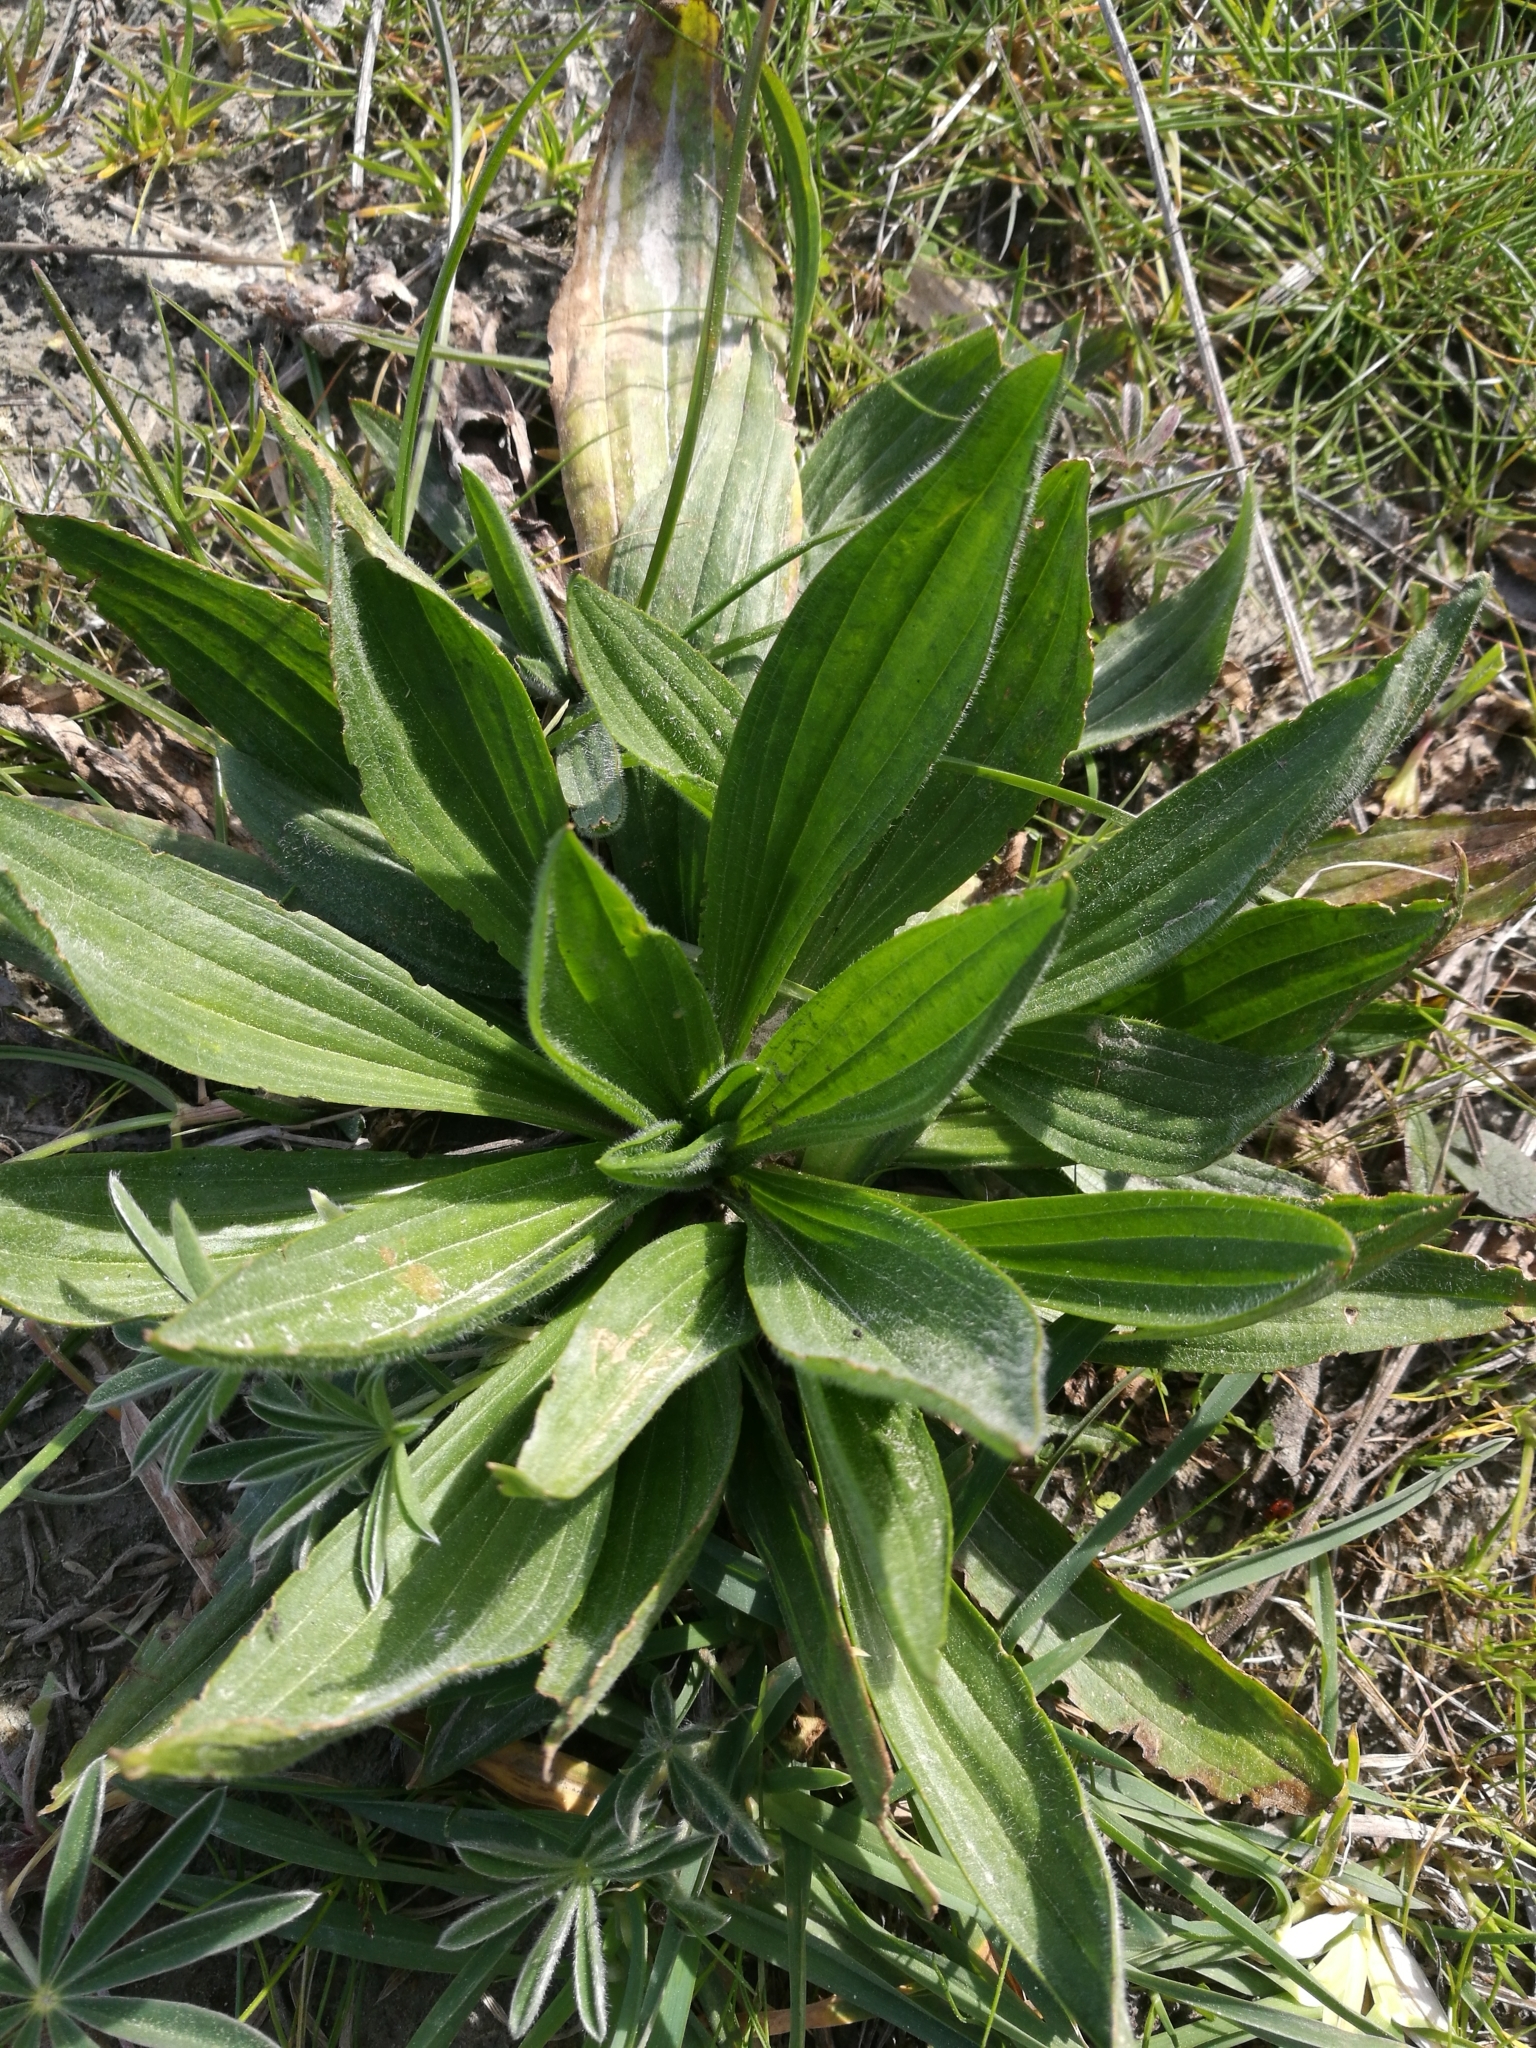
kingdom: Plantae
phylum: Tracheophyta
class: Magnoliopsida
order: Lamiales
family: Plantaginaceae
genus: Plantago
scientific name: Plantago lanceolata
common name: Ribwort plantain
